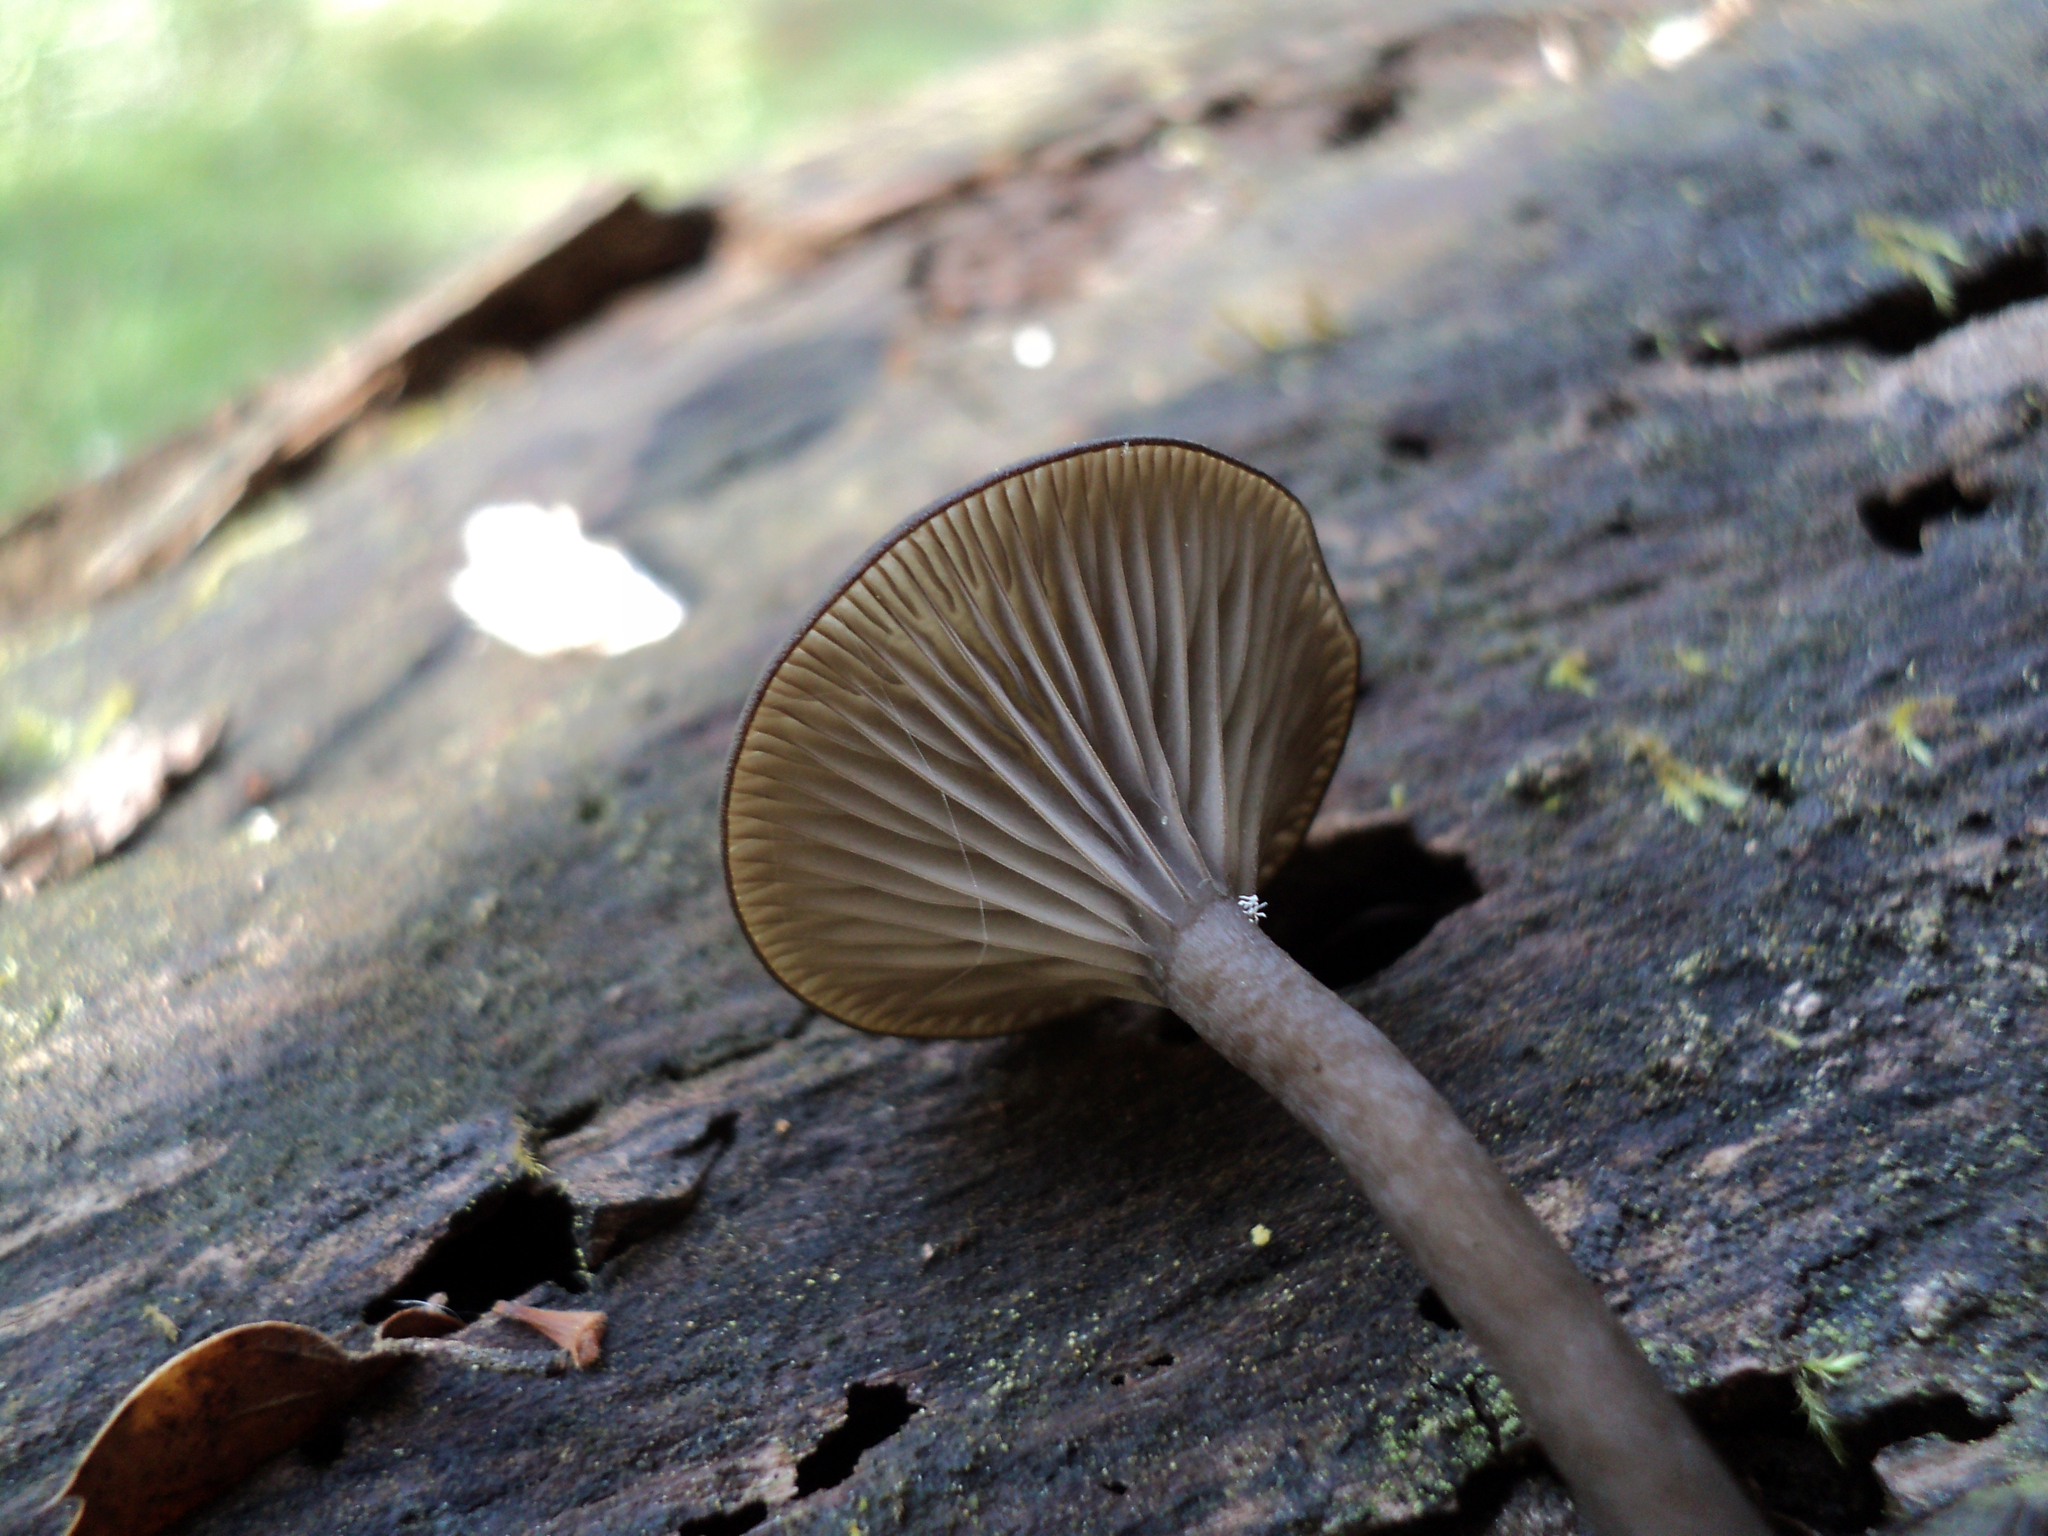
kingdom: Fungi
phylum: Basidiomycota
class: Agaricomycetes
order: Agaricales
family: Hygrophoraceae
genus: Arrhenia
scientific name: Arrhenia epichysium
